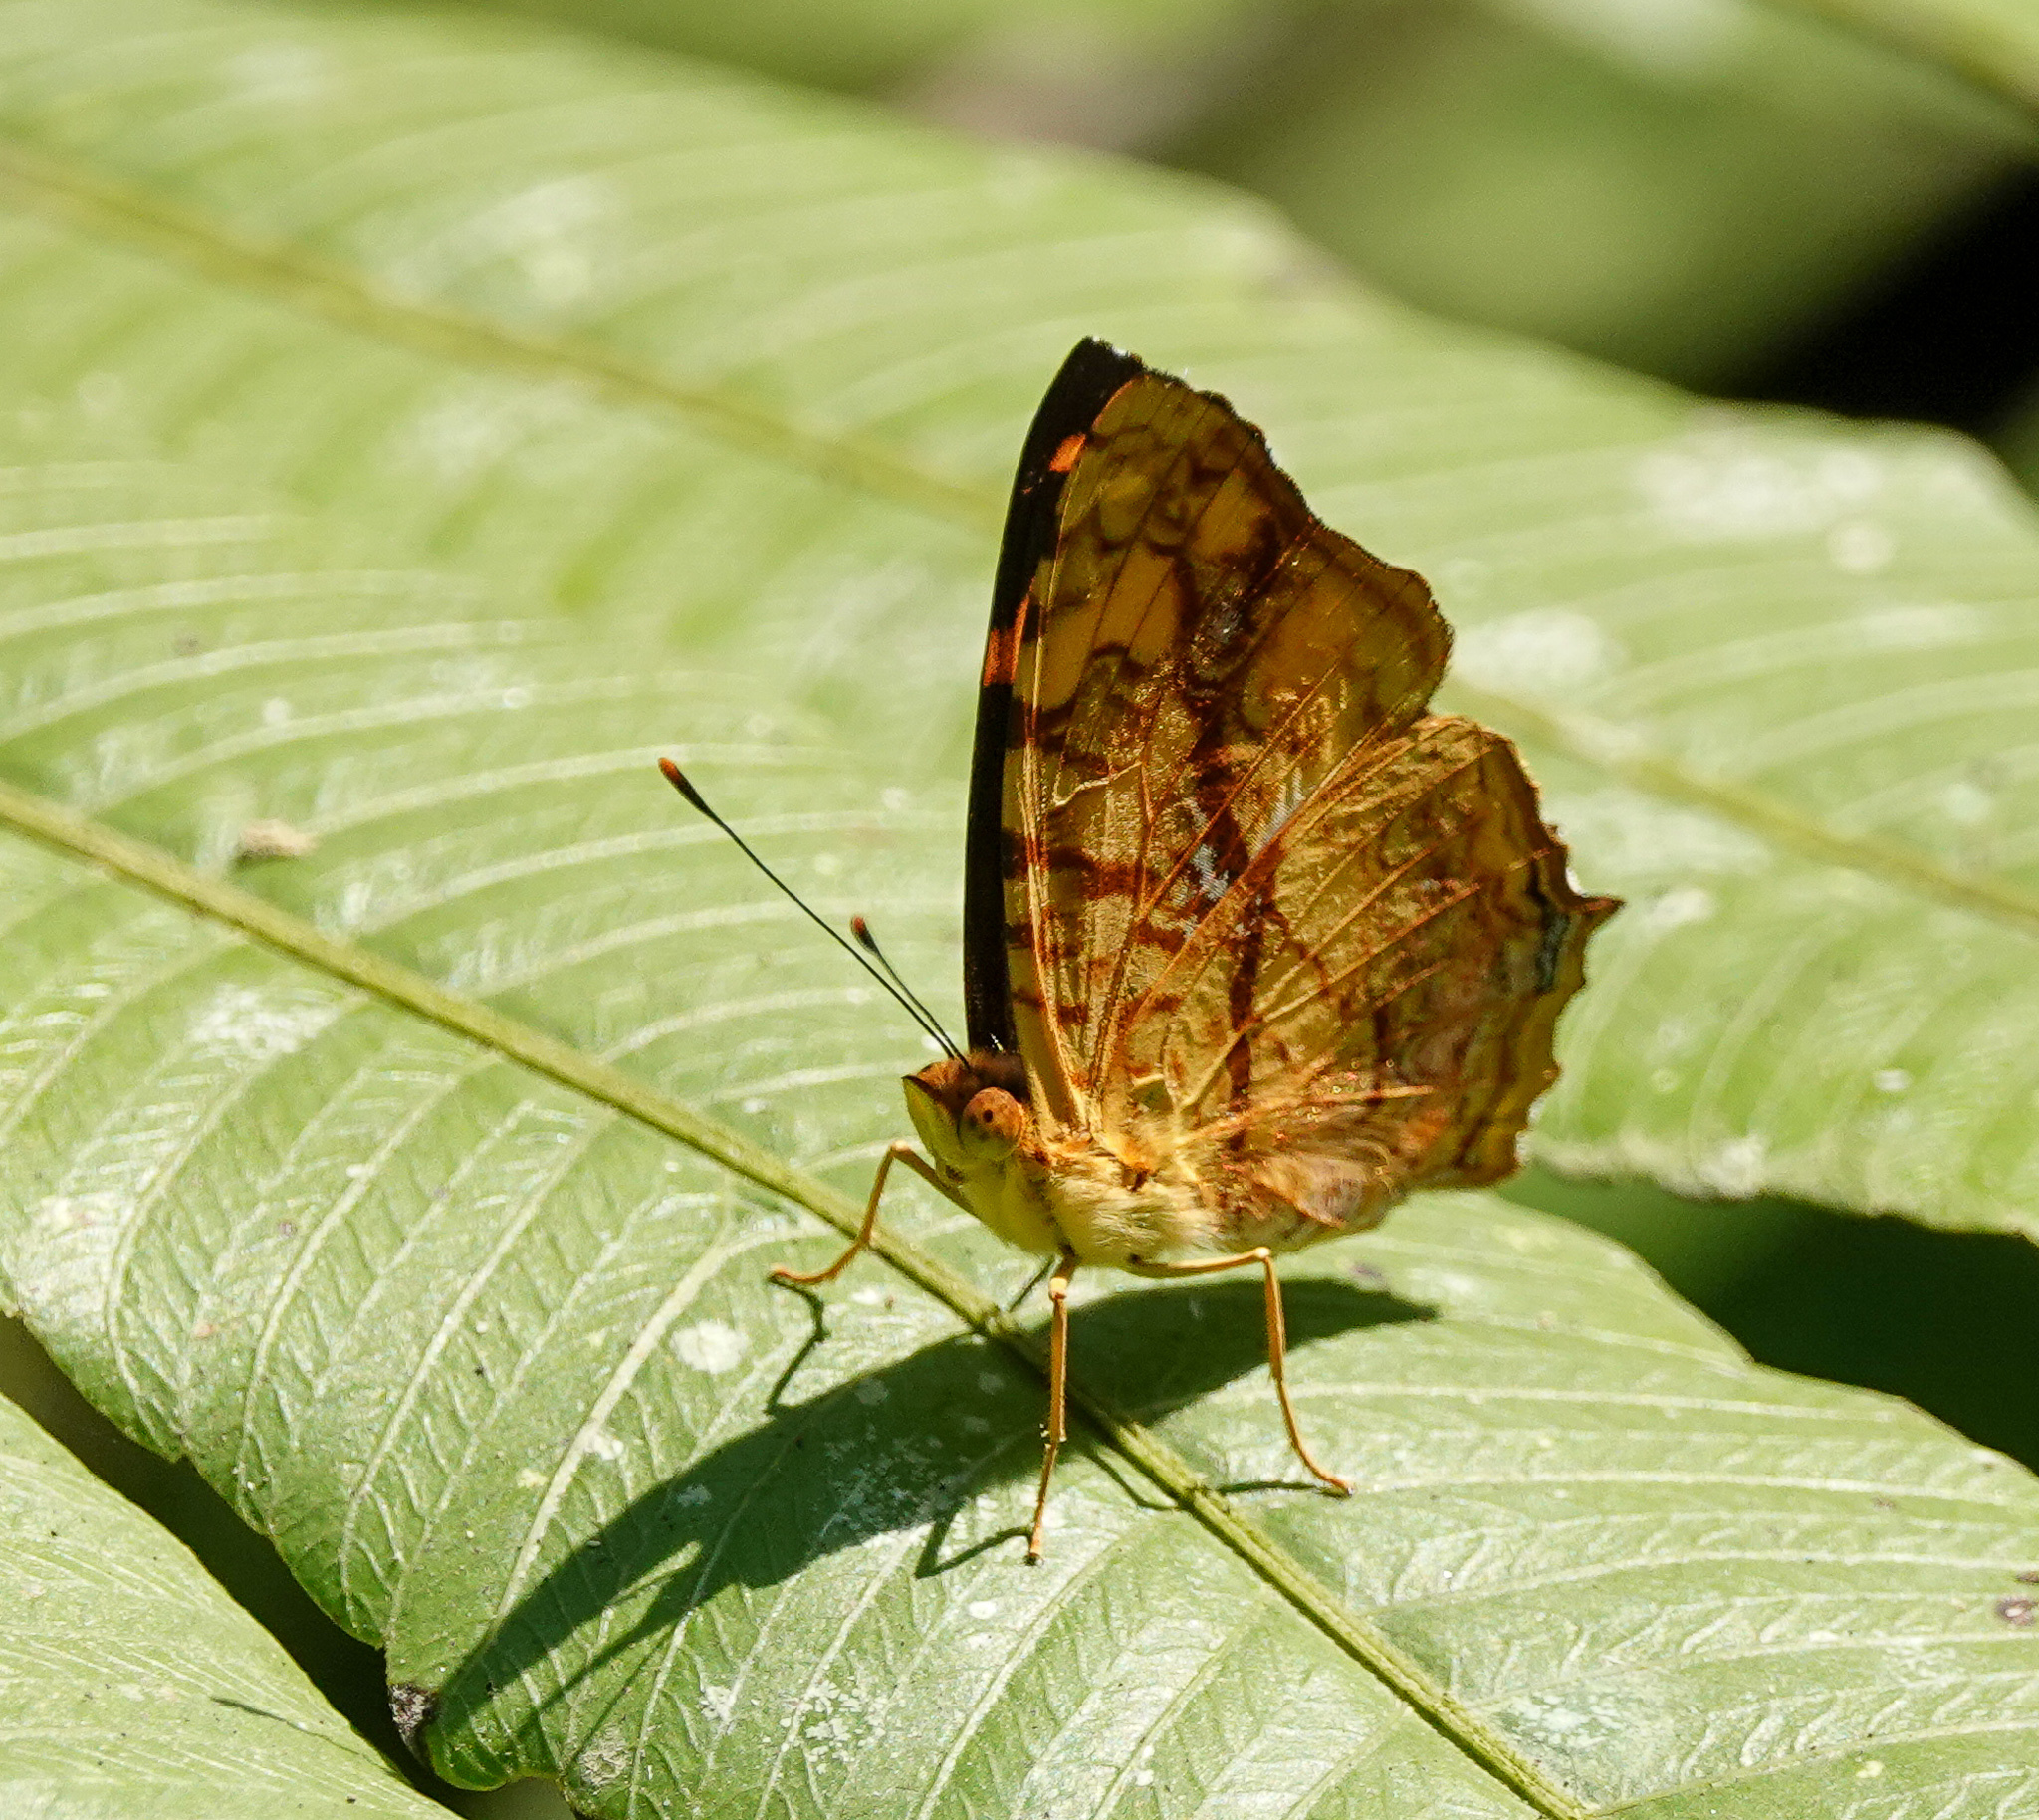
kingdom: Animalia
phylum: Arthropoda
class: Insecta
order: Lepidoptera
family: Nymphalidae
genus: Symbrenthia
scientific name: Symbrenthia hypselis
